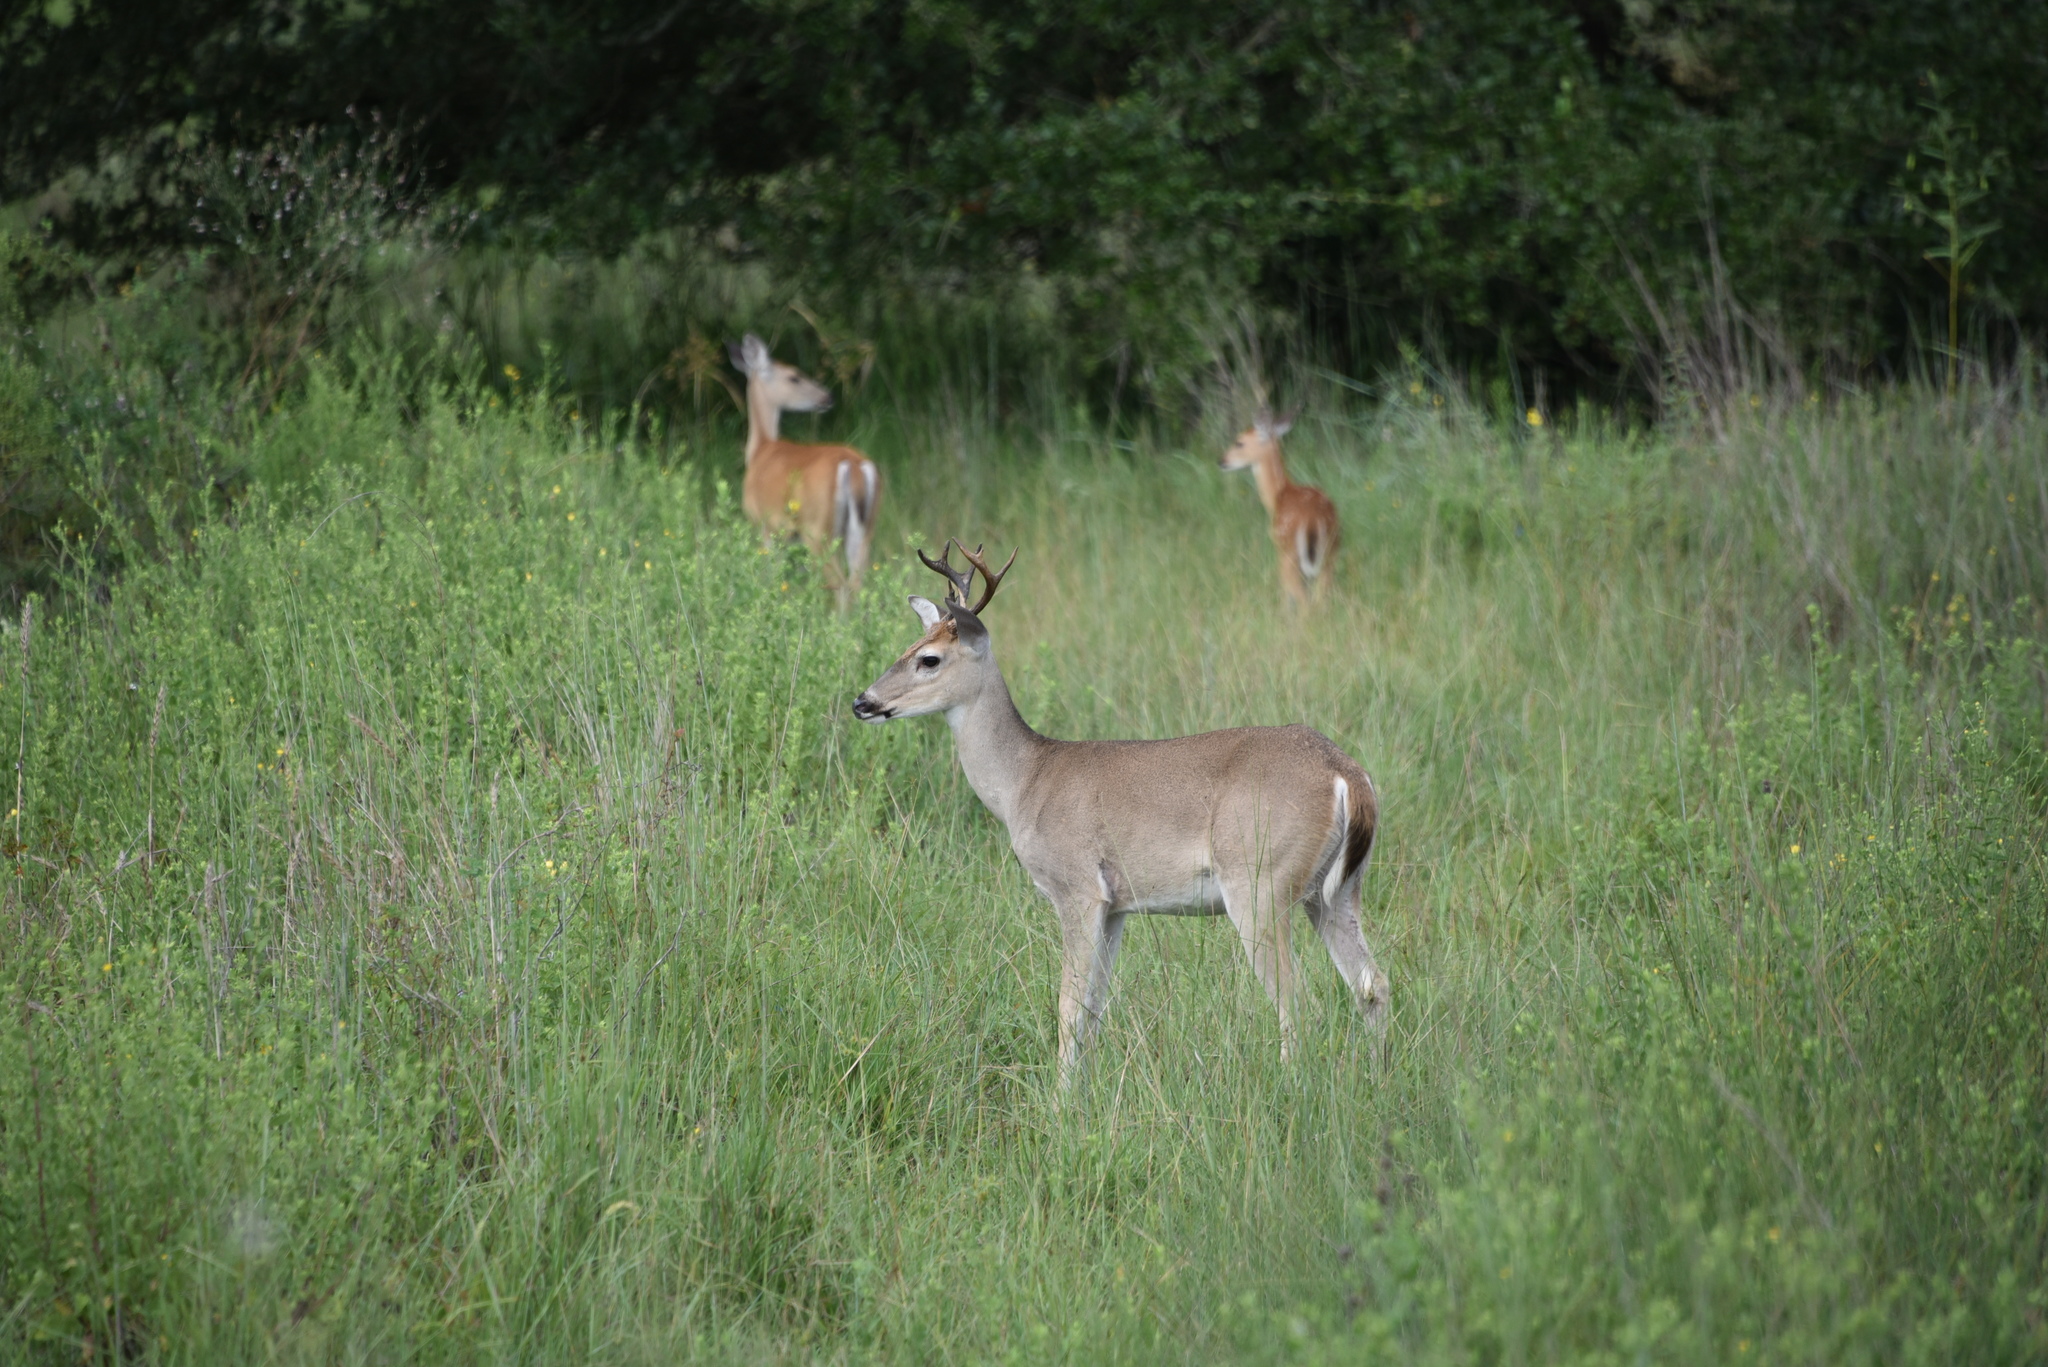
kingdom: Animalia
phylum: Chordata
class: Mammalia
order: Artiodactyla
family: Cervidae
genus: Odocoileus
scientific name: Odocoileus virginianus
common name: White-tailed deer
